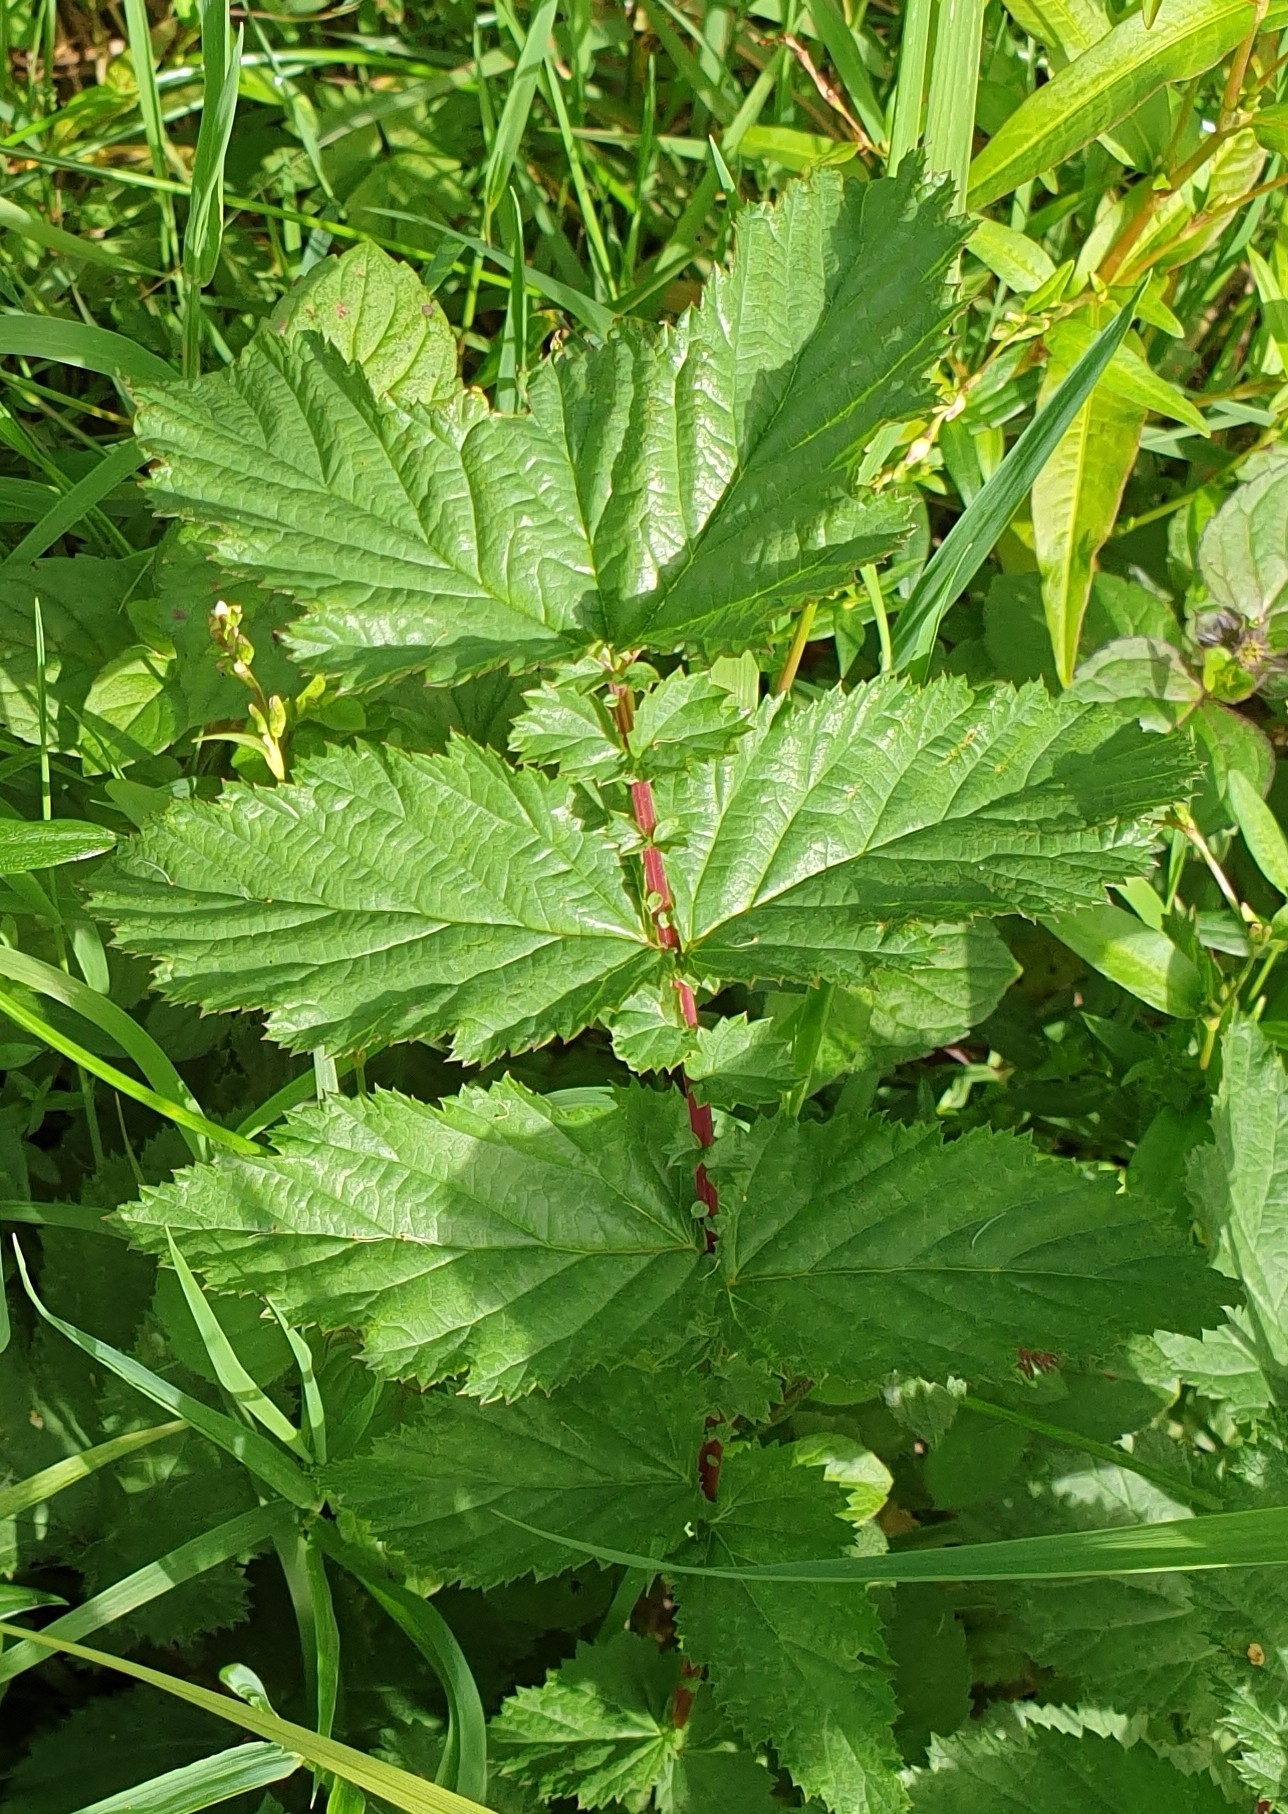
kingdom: Plantae
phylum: Tracheophyta
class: Magnoliopsida
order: Rosales
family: Rosaceae
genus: Filipendula
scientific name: Filipendula ulmaria
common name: Meadowsweet
